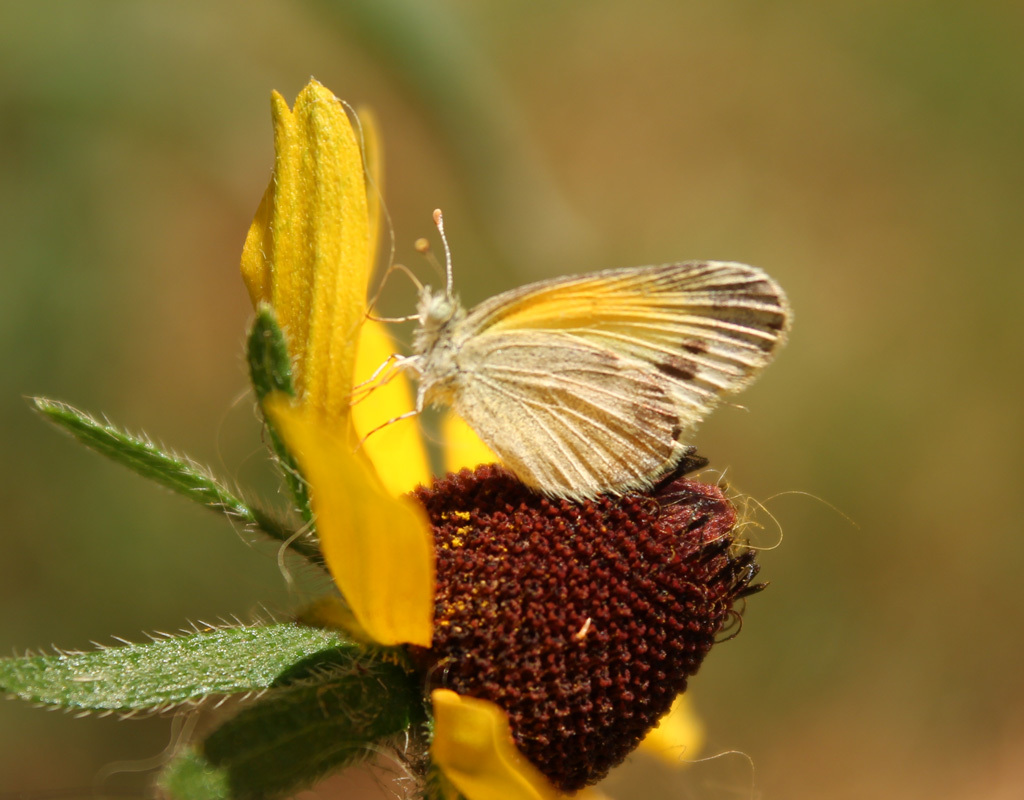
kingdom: Animalia
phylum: Arthropoda
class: Insecta
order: Lepidoptera
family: Pieridae
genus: Nathalis
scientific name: Nathalis iole
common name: Dainty sulphur
